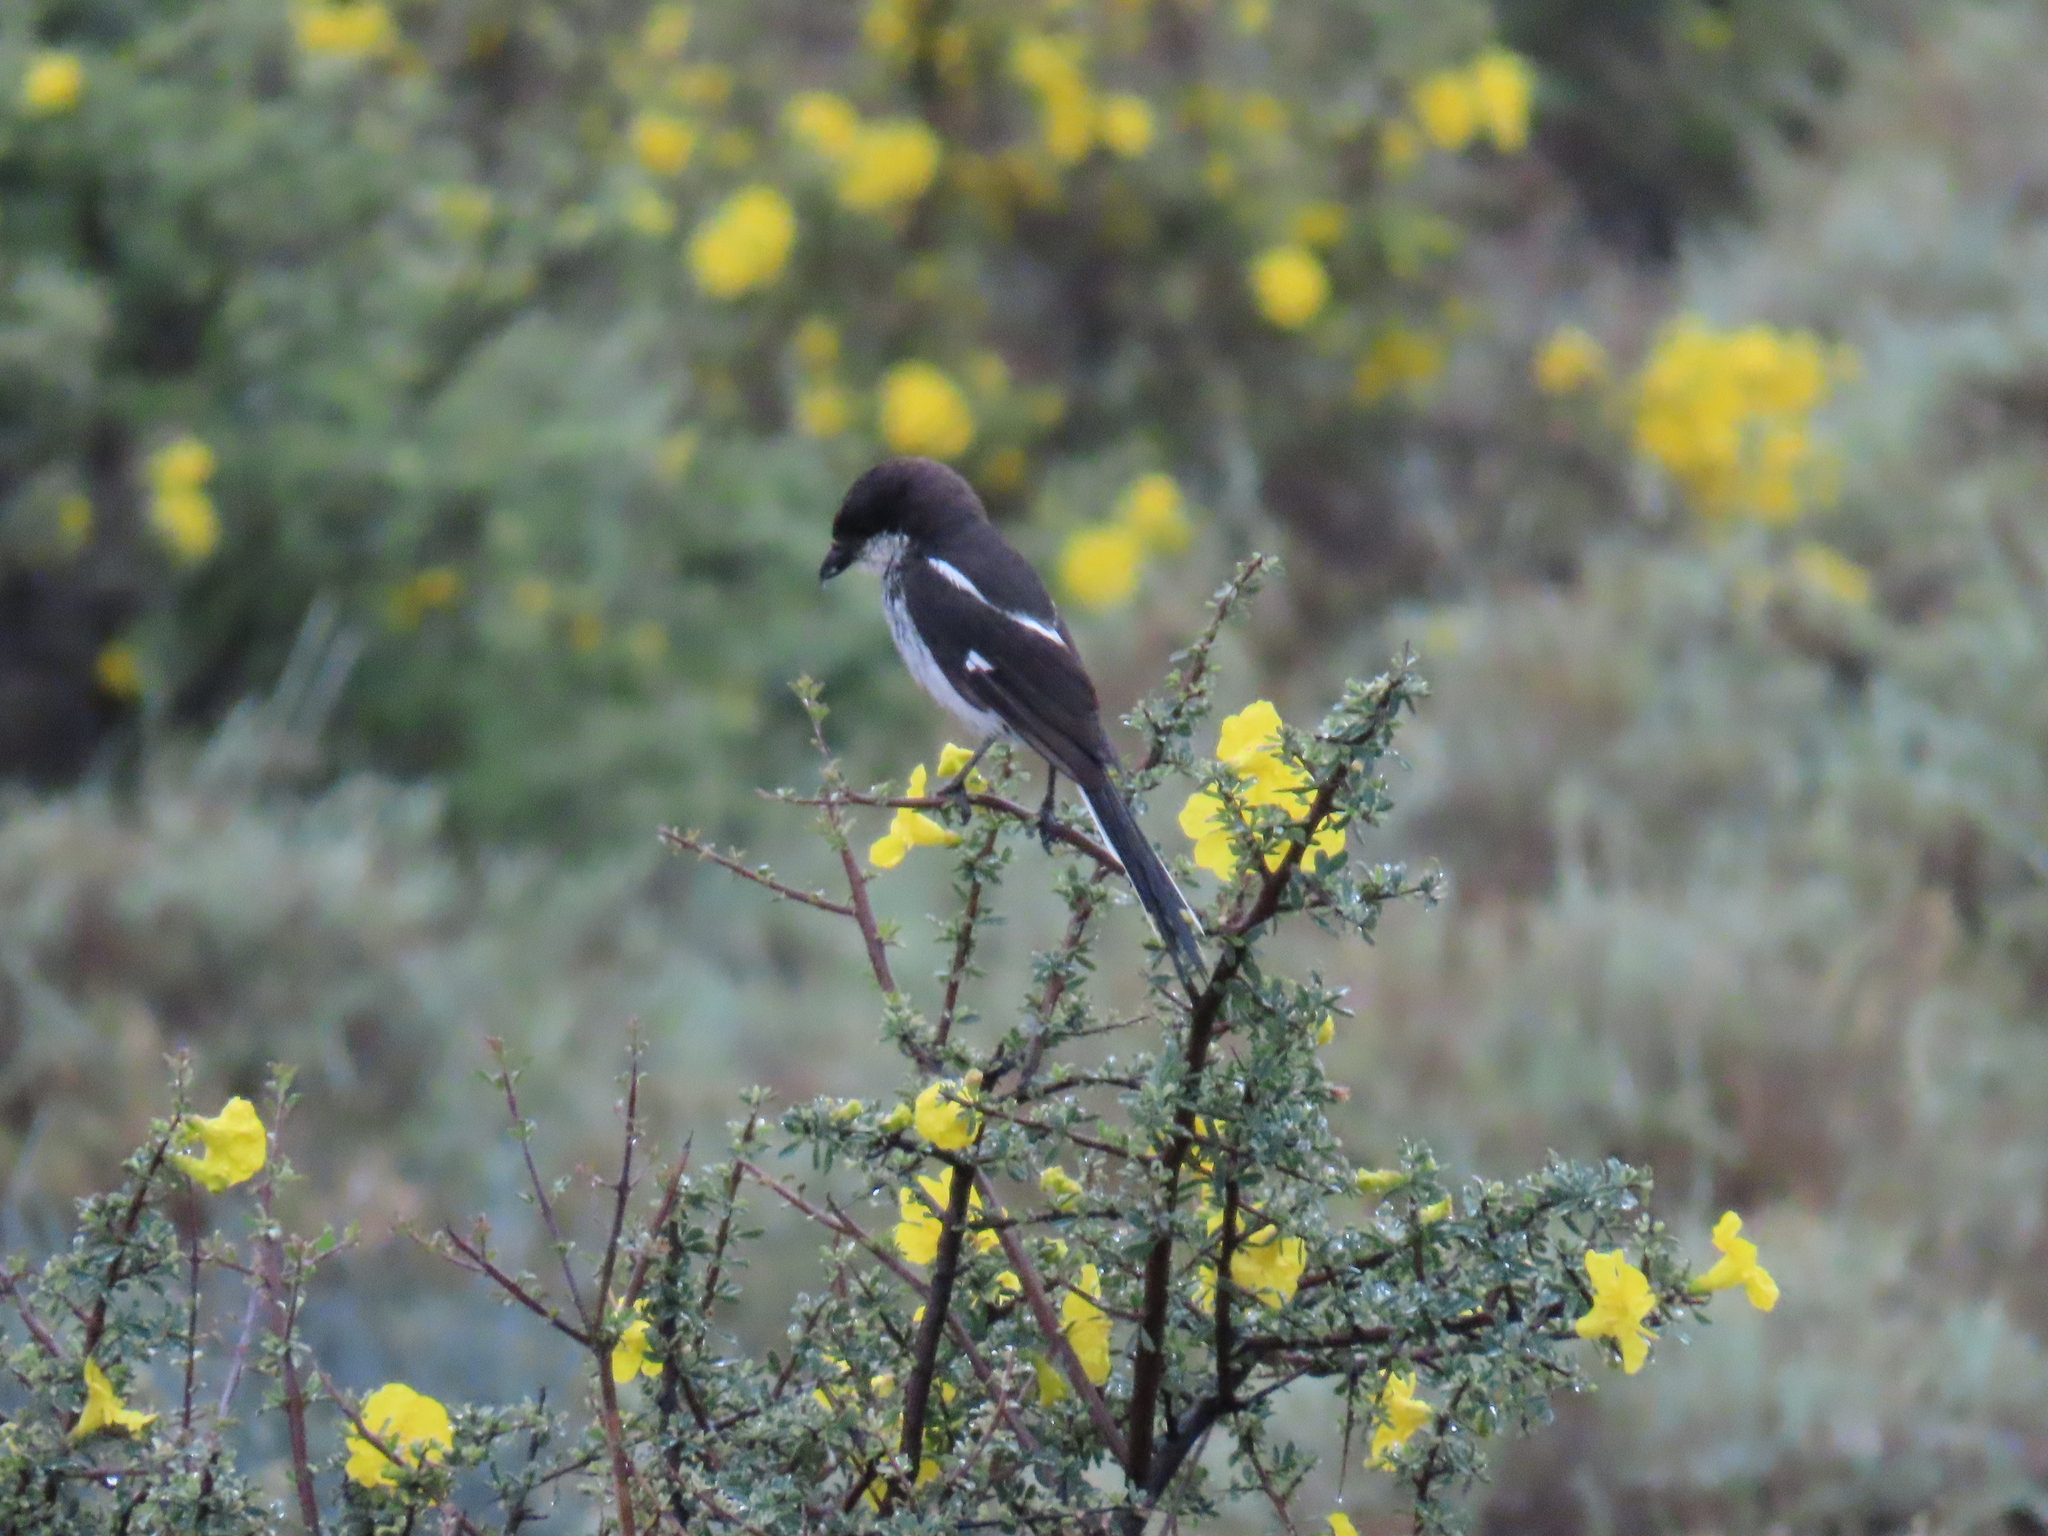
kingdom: Animalia
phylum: Chordata
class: Aves
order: Passeriformes
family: Laniidae
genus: Lanius
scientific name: Lanius collaris
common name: Southern fiscal
